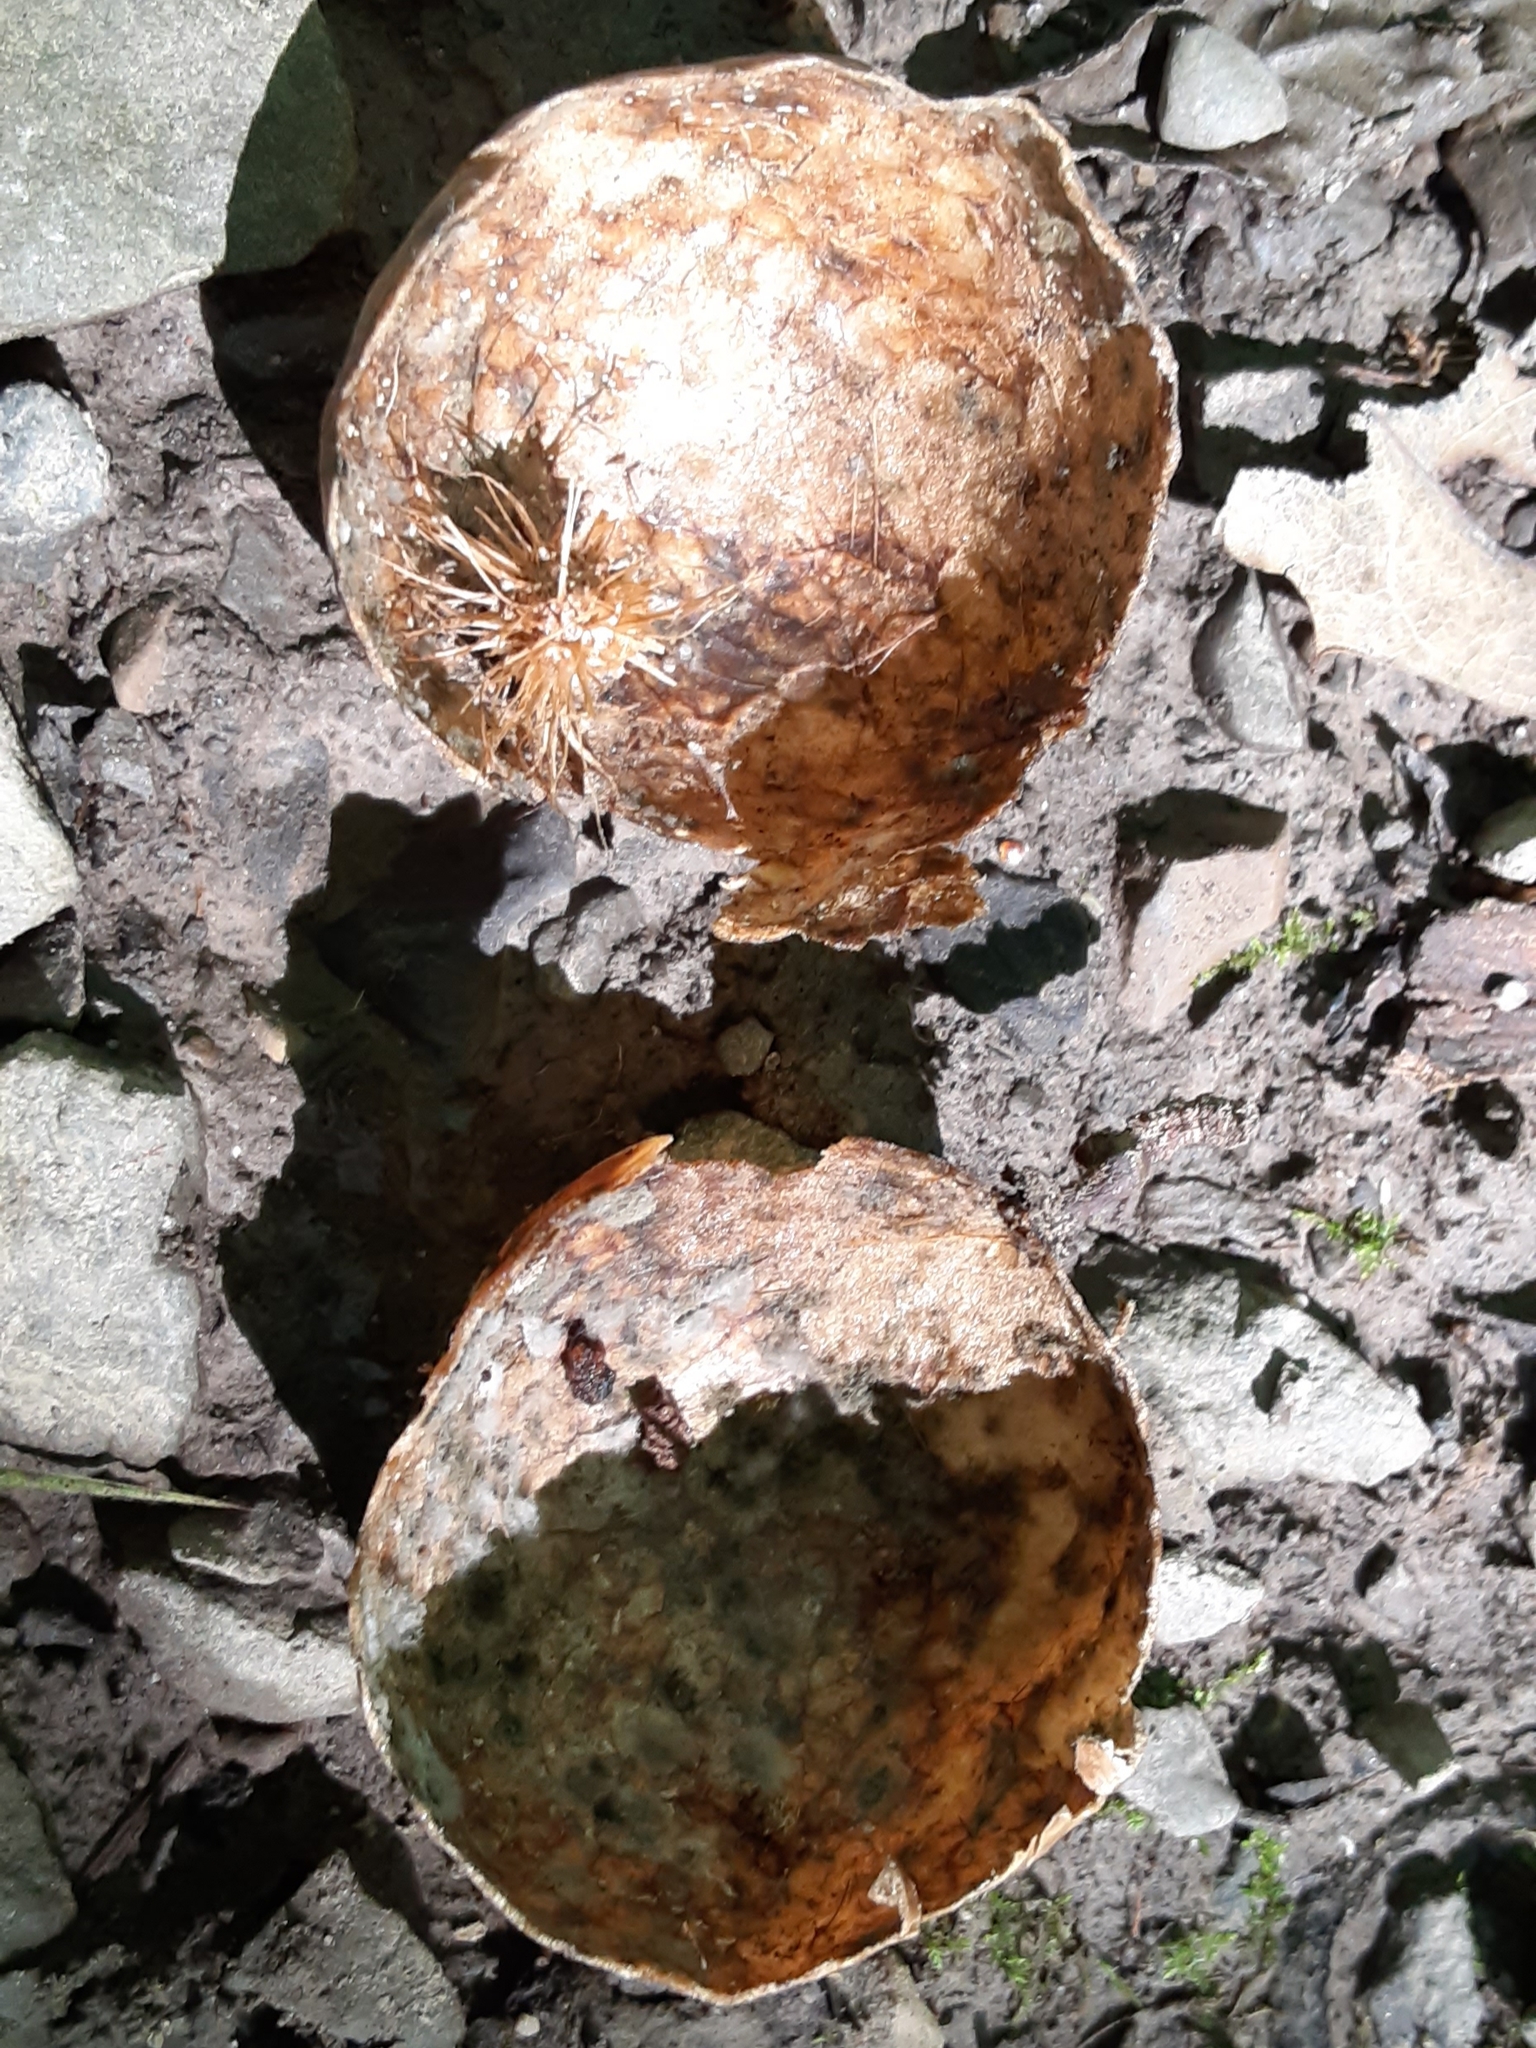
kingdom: Animalia
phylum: Arthropoda
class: Insecta
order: Hymenoptera
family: Cynipidae
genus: Amphibolips
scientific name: Amphibolips
